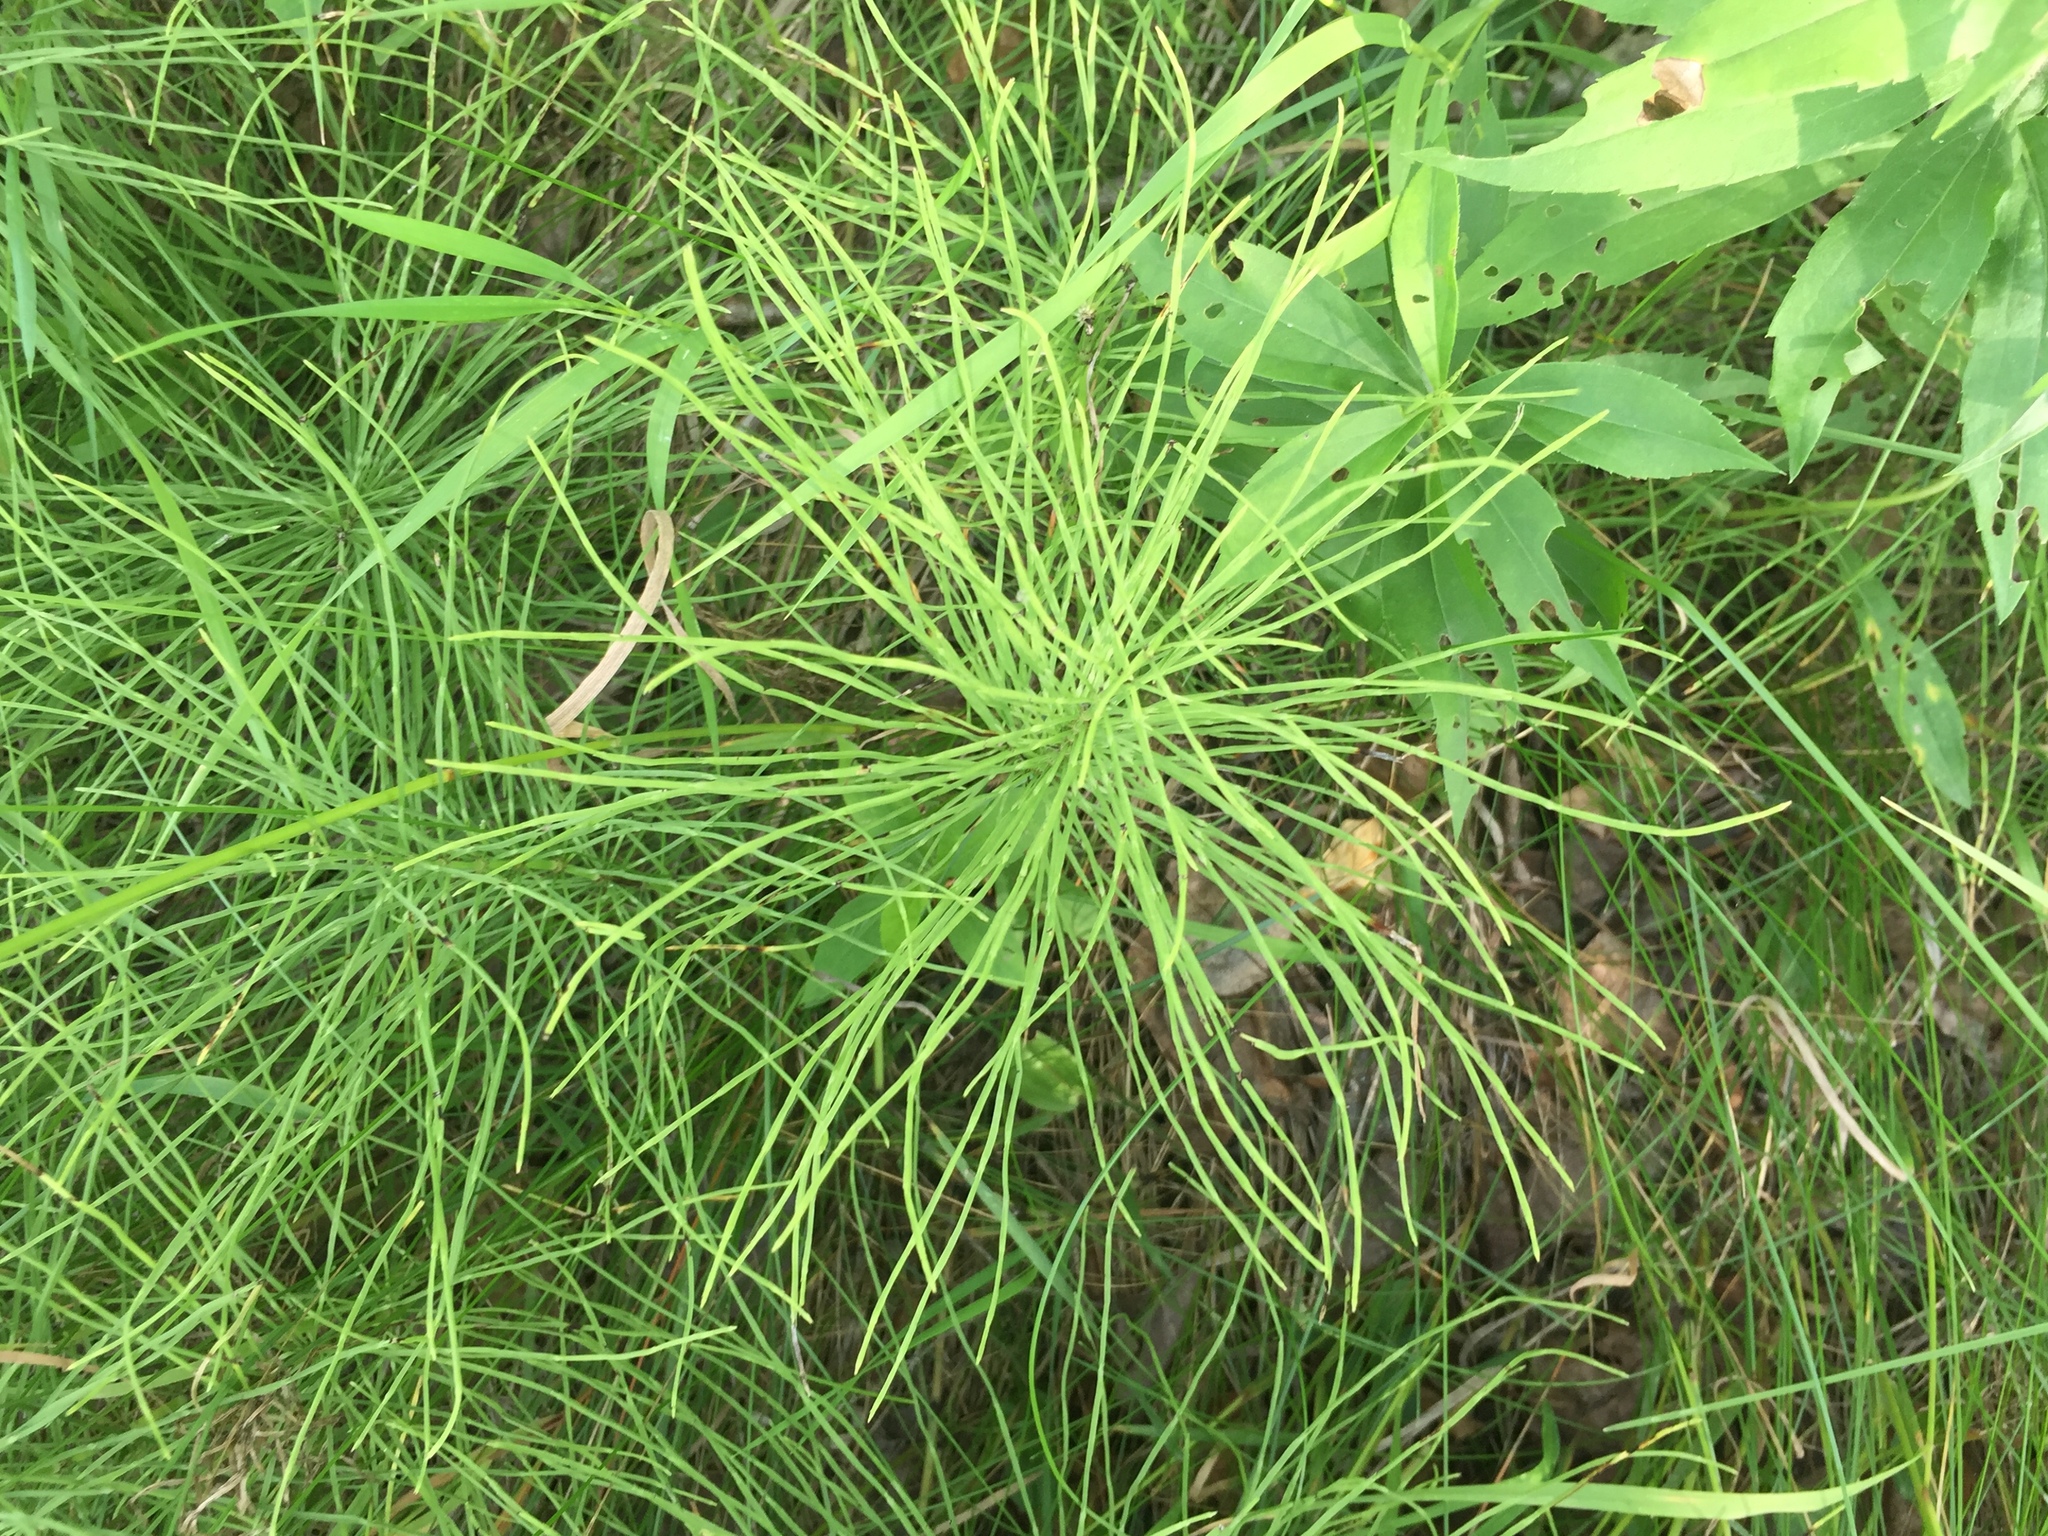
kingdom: Plantae
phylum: Tracheophyta
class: Polypodiopsida
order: Equisetales
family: Equisetaceae
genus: Equisetum
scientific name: Equisetum arvense
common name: Field horsetail
